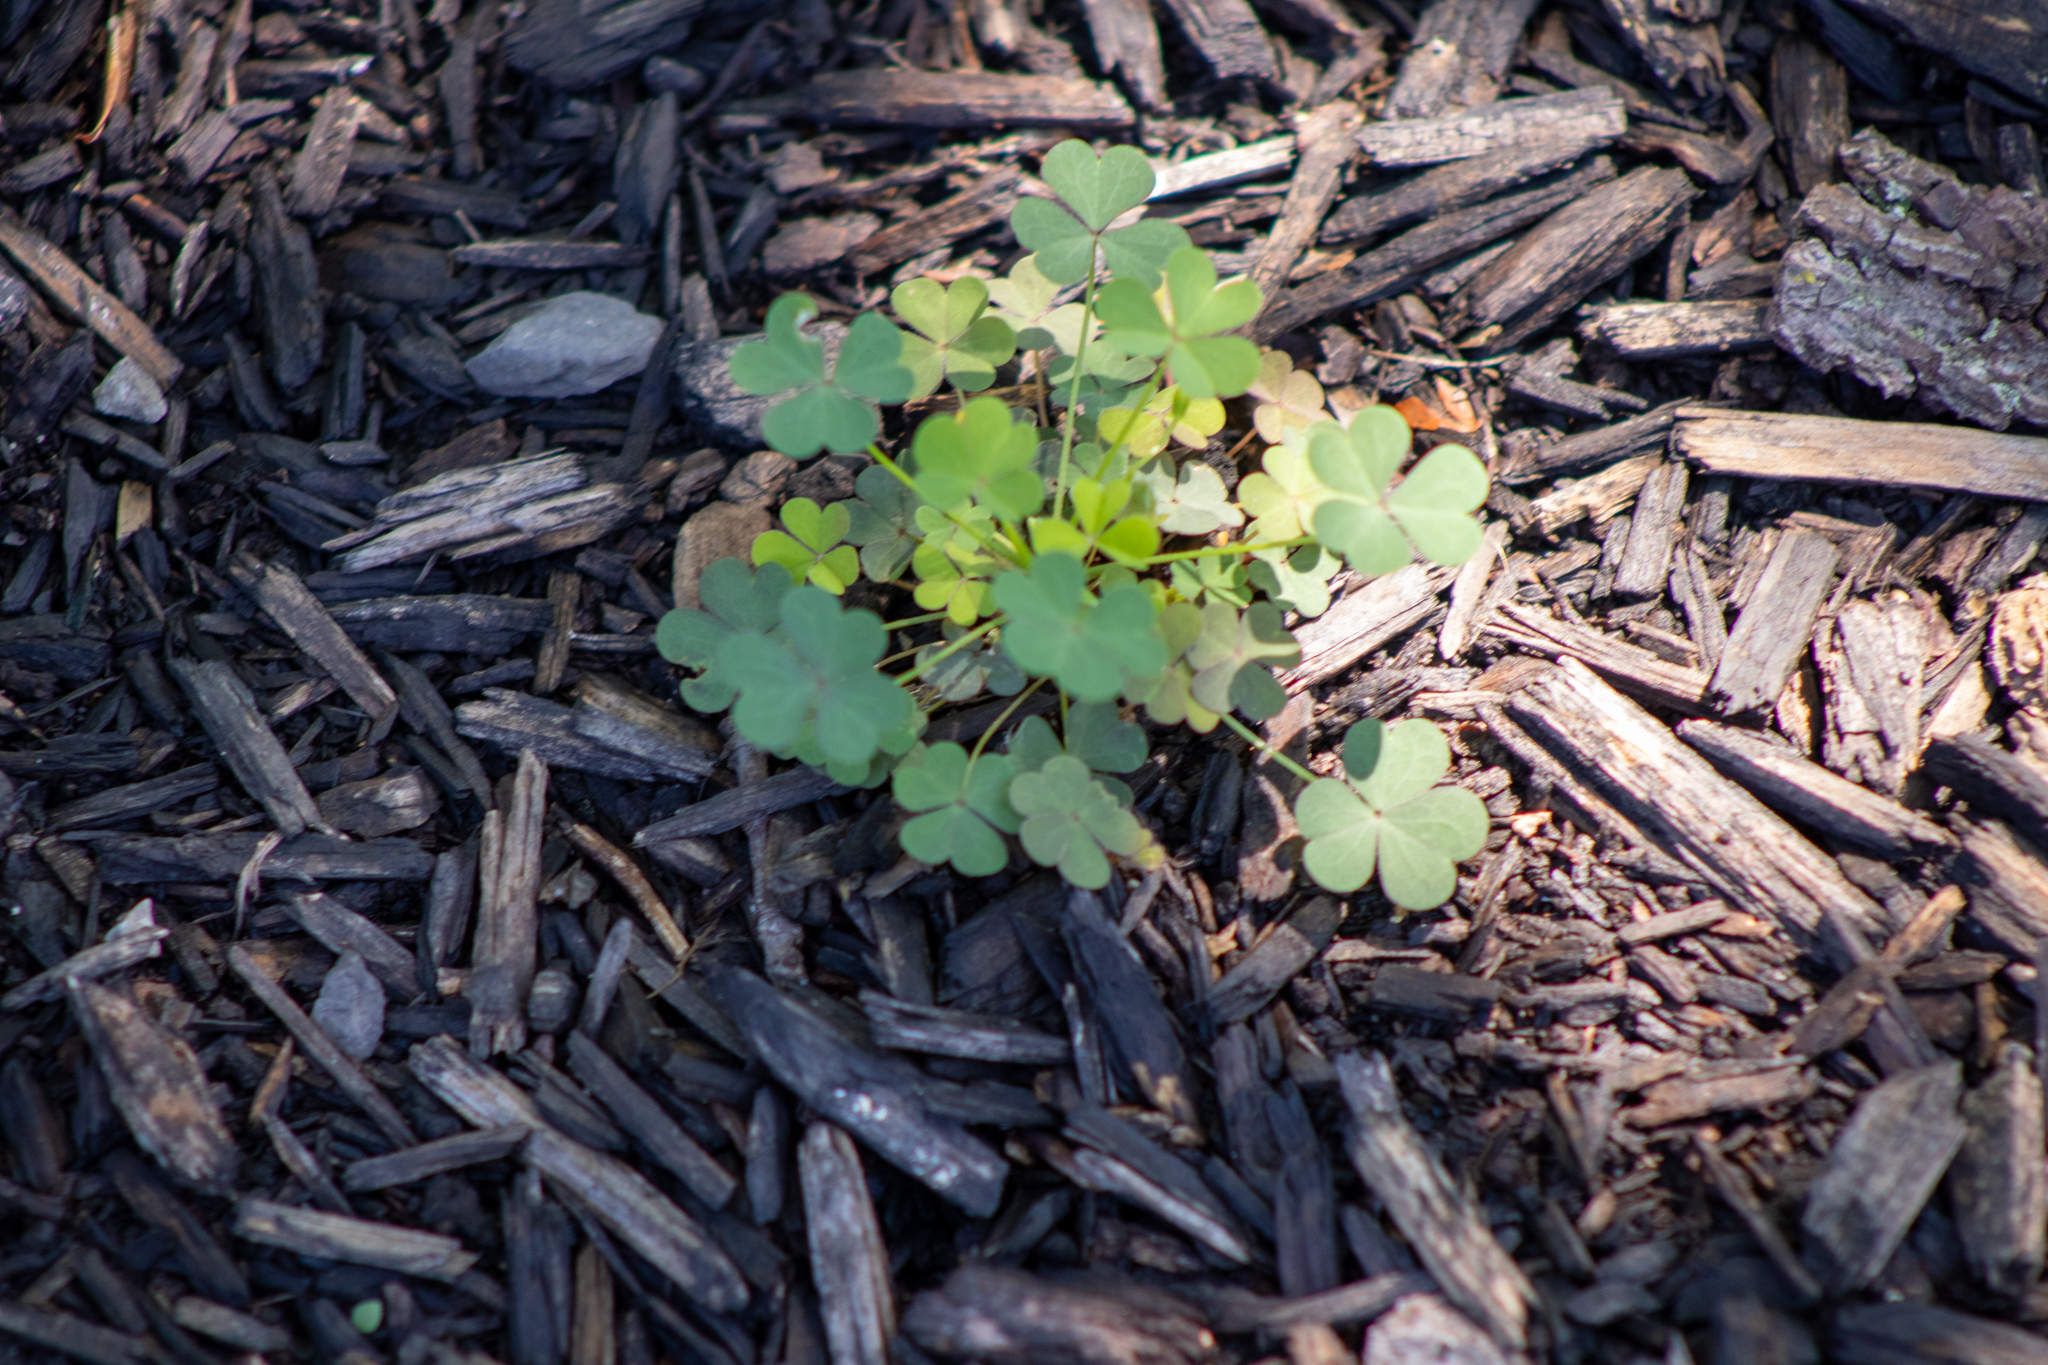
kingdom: Plantae
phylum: Tracheophyta
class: Magnoliopsida
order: Oxalidales
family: Oxalidaceae
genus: Oxalis
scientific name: Oxalis corniculata
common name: Procumbent yellow-sorrel
